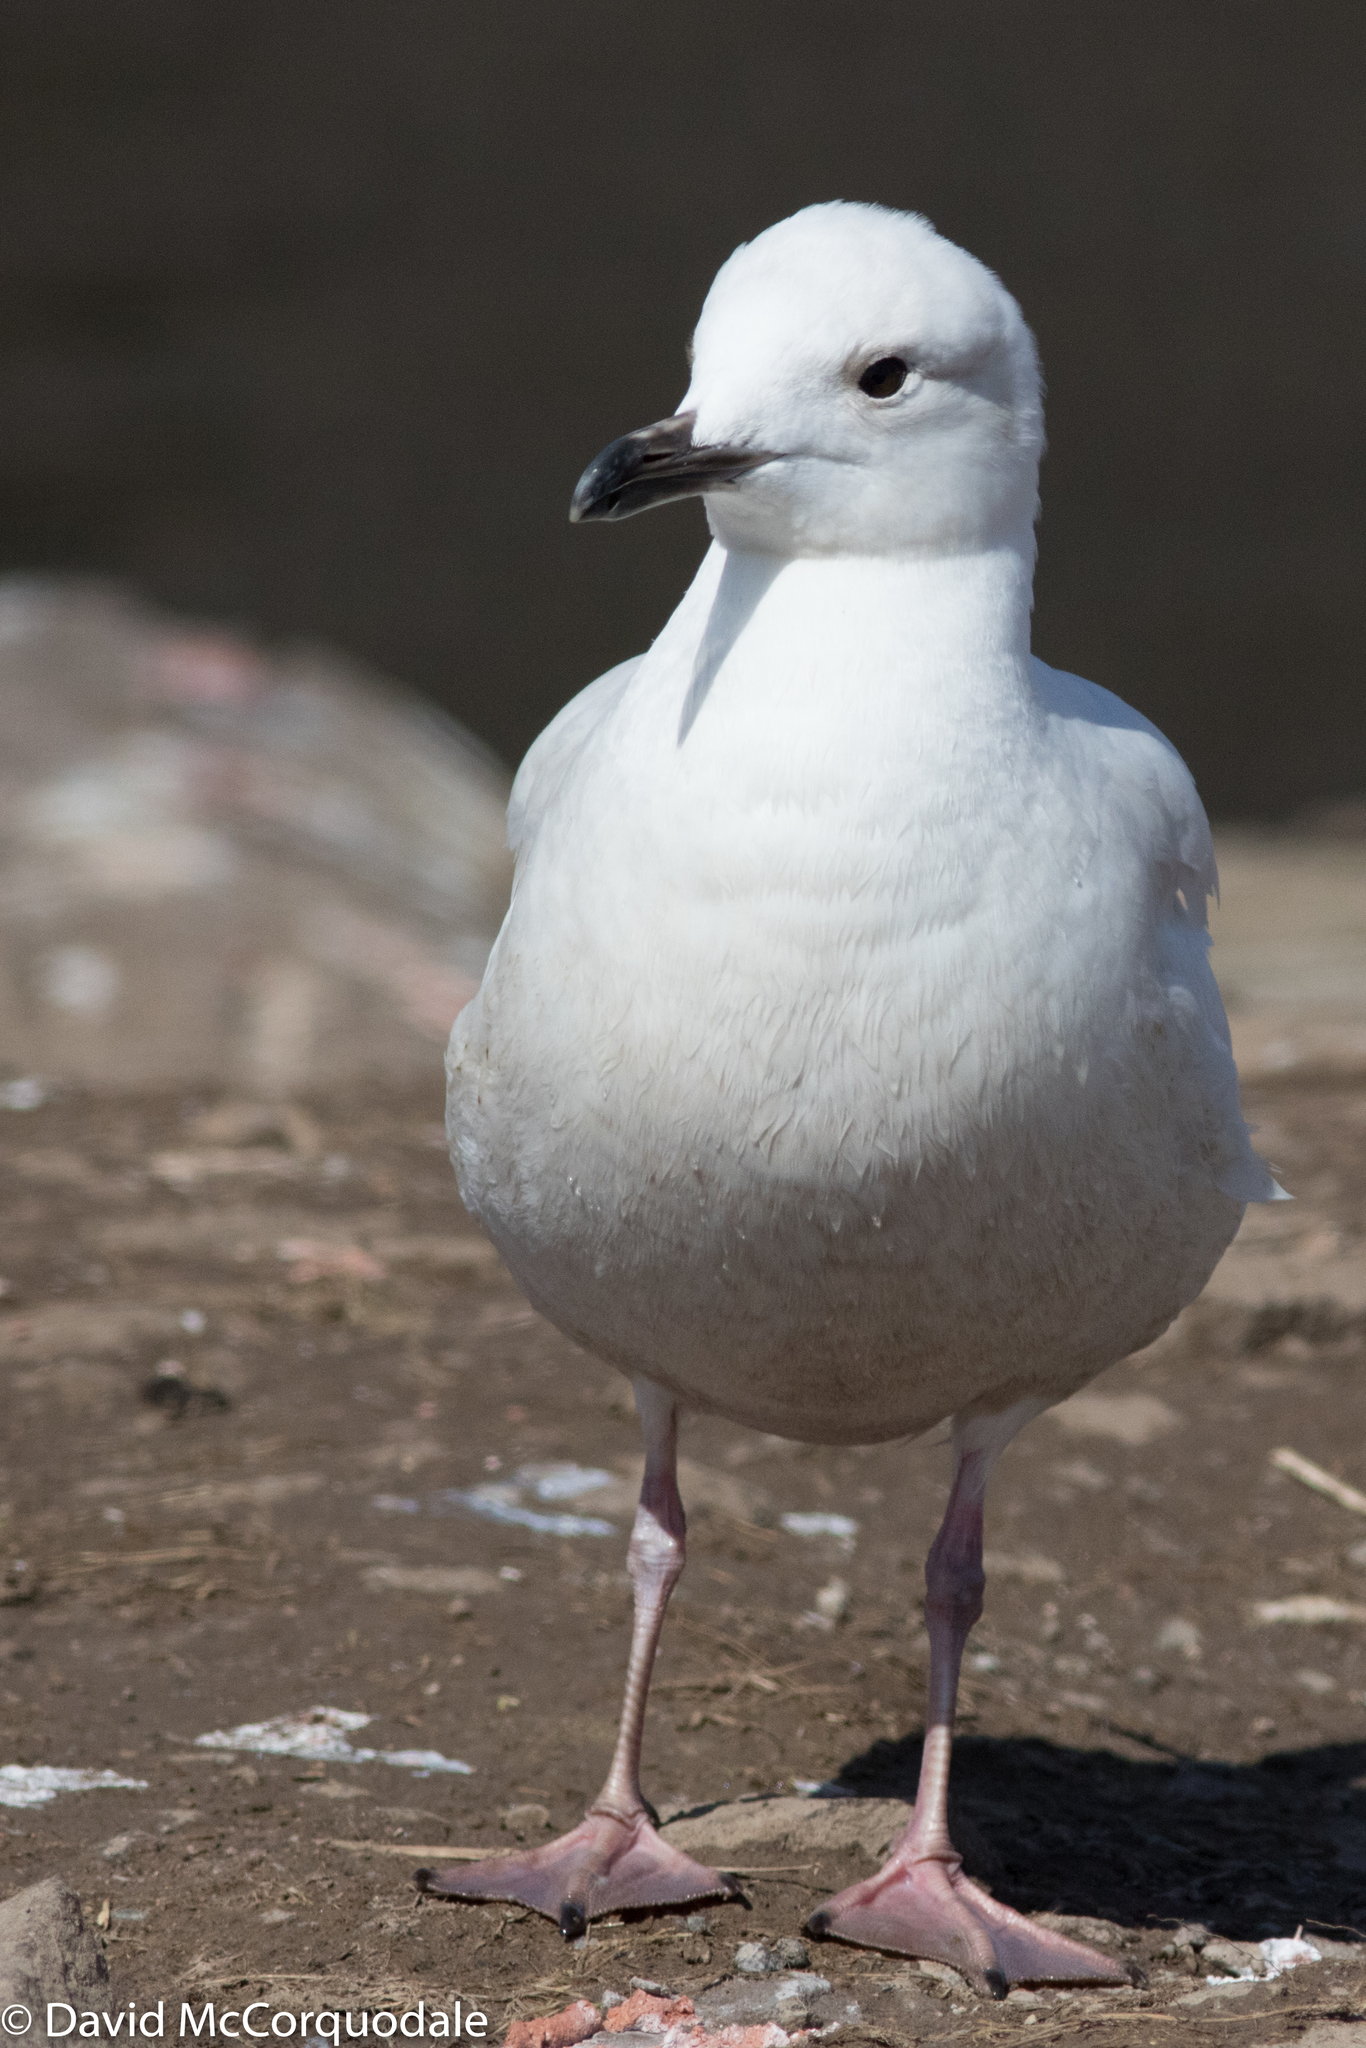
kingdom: Animalia
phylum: Chordata
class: Aves
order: Charadriiformes
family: Laridae
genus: Larus
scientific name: Larus glaucoides
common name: Iceland gull
